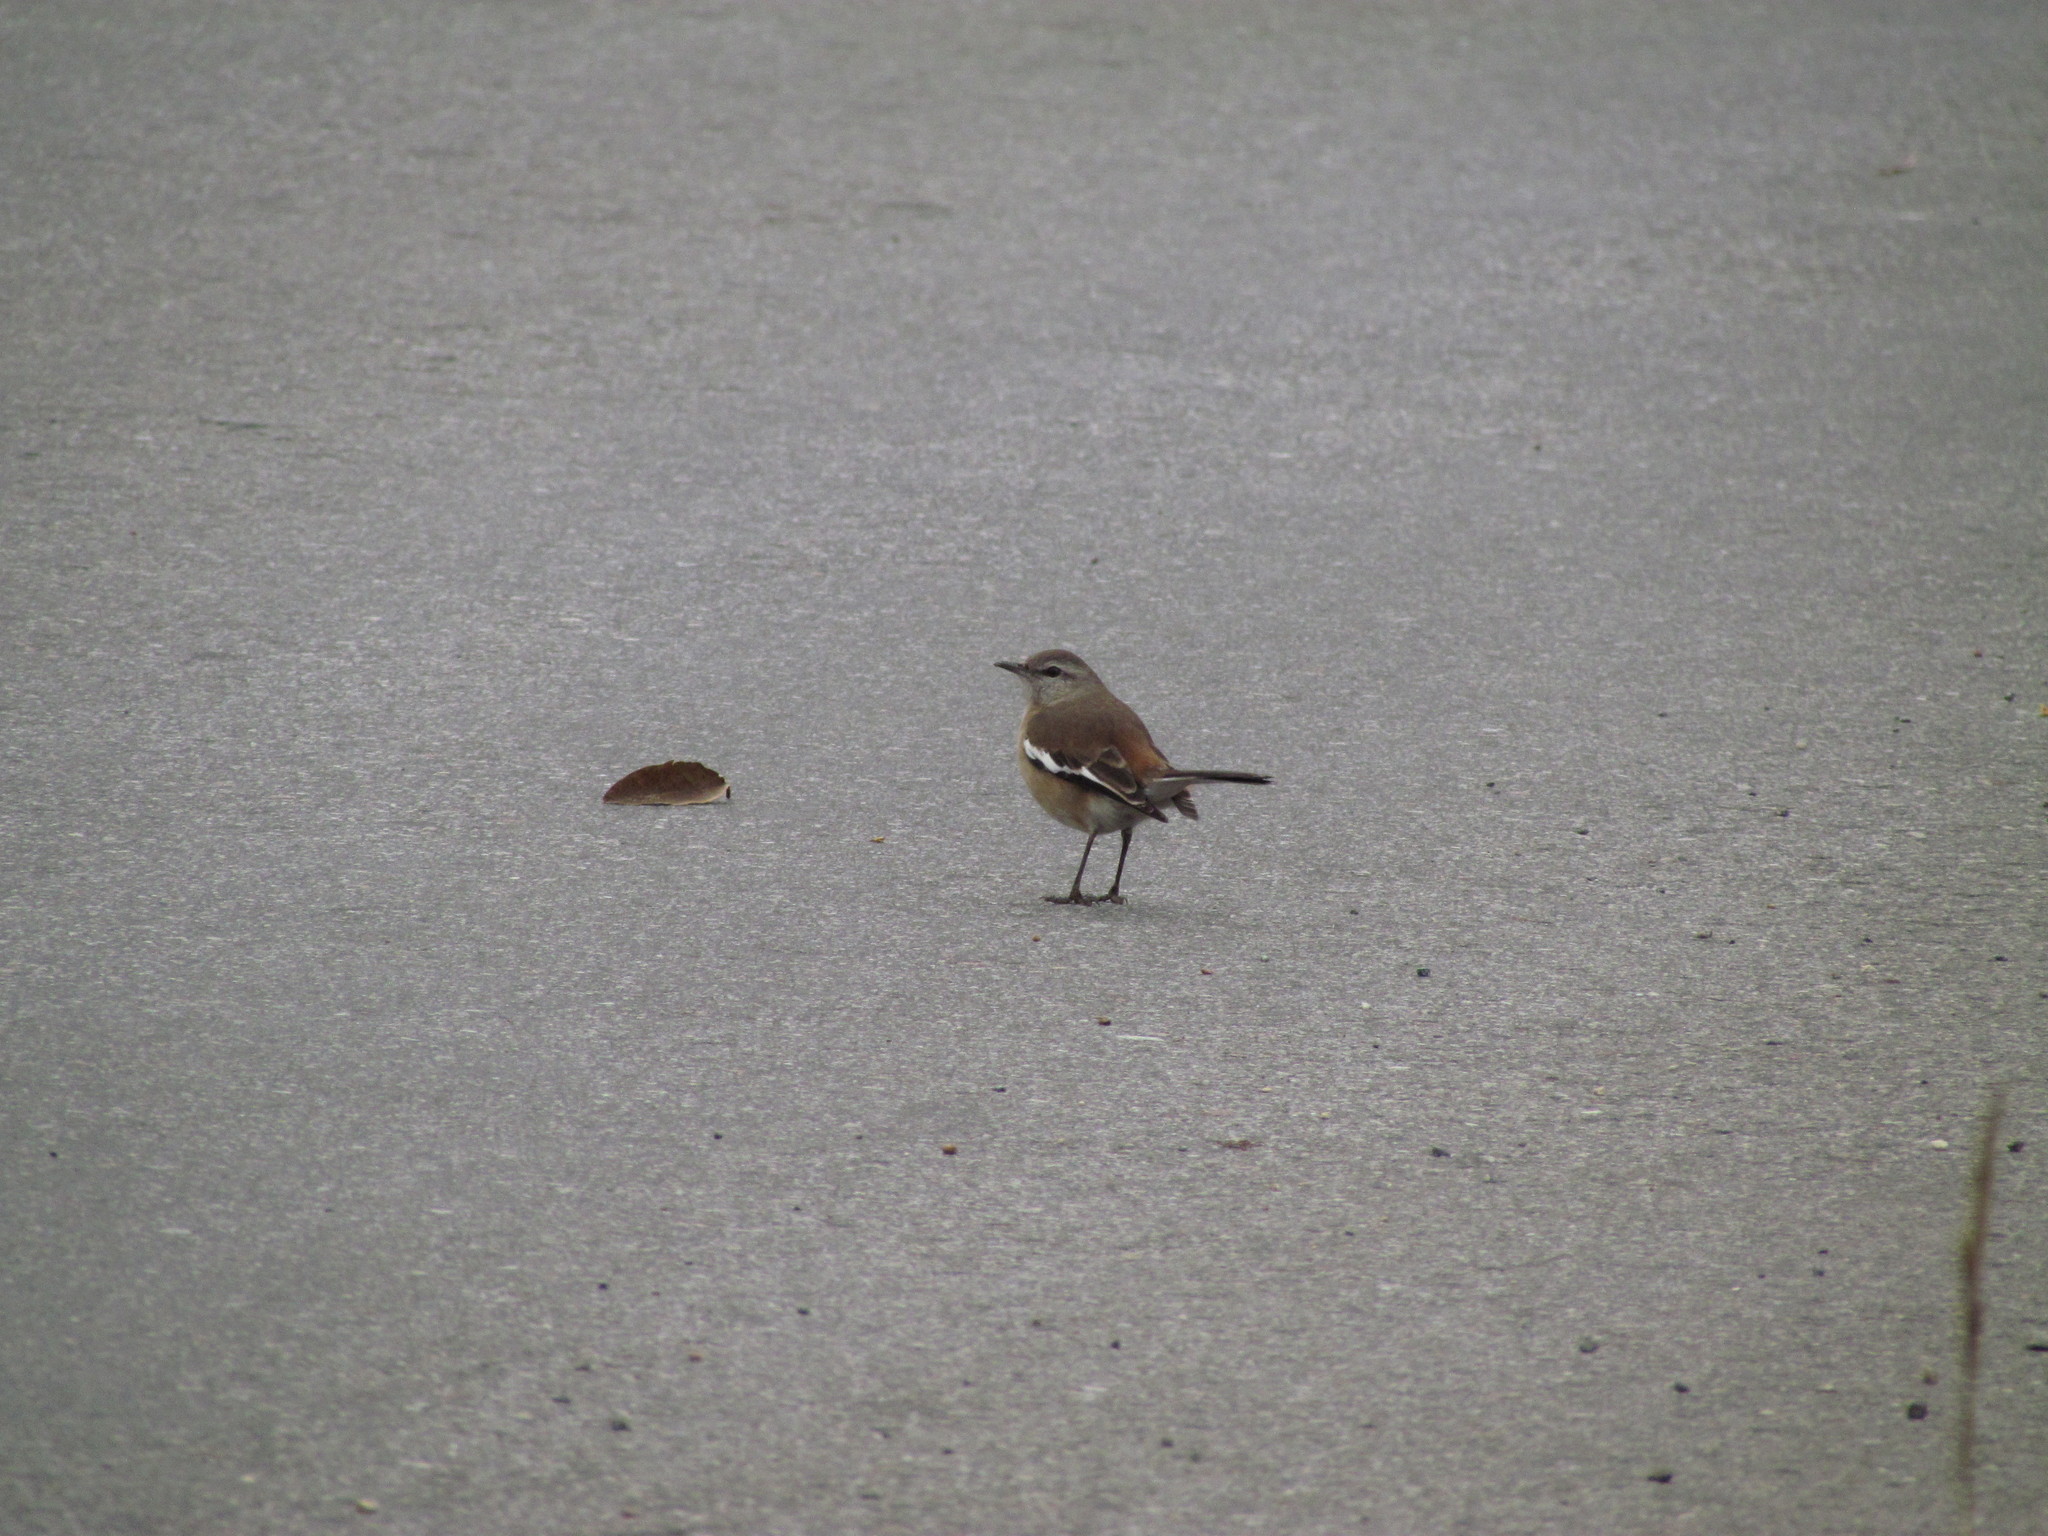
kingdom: Animalia
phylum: Chordata
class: Aves
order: Passeriformes
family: Mimidae
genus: Mimus
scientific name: Mimus triurus
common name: White-banded mockingbird
